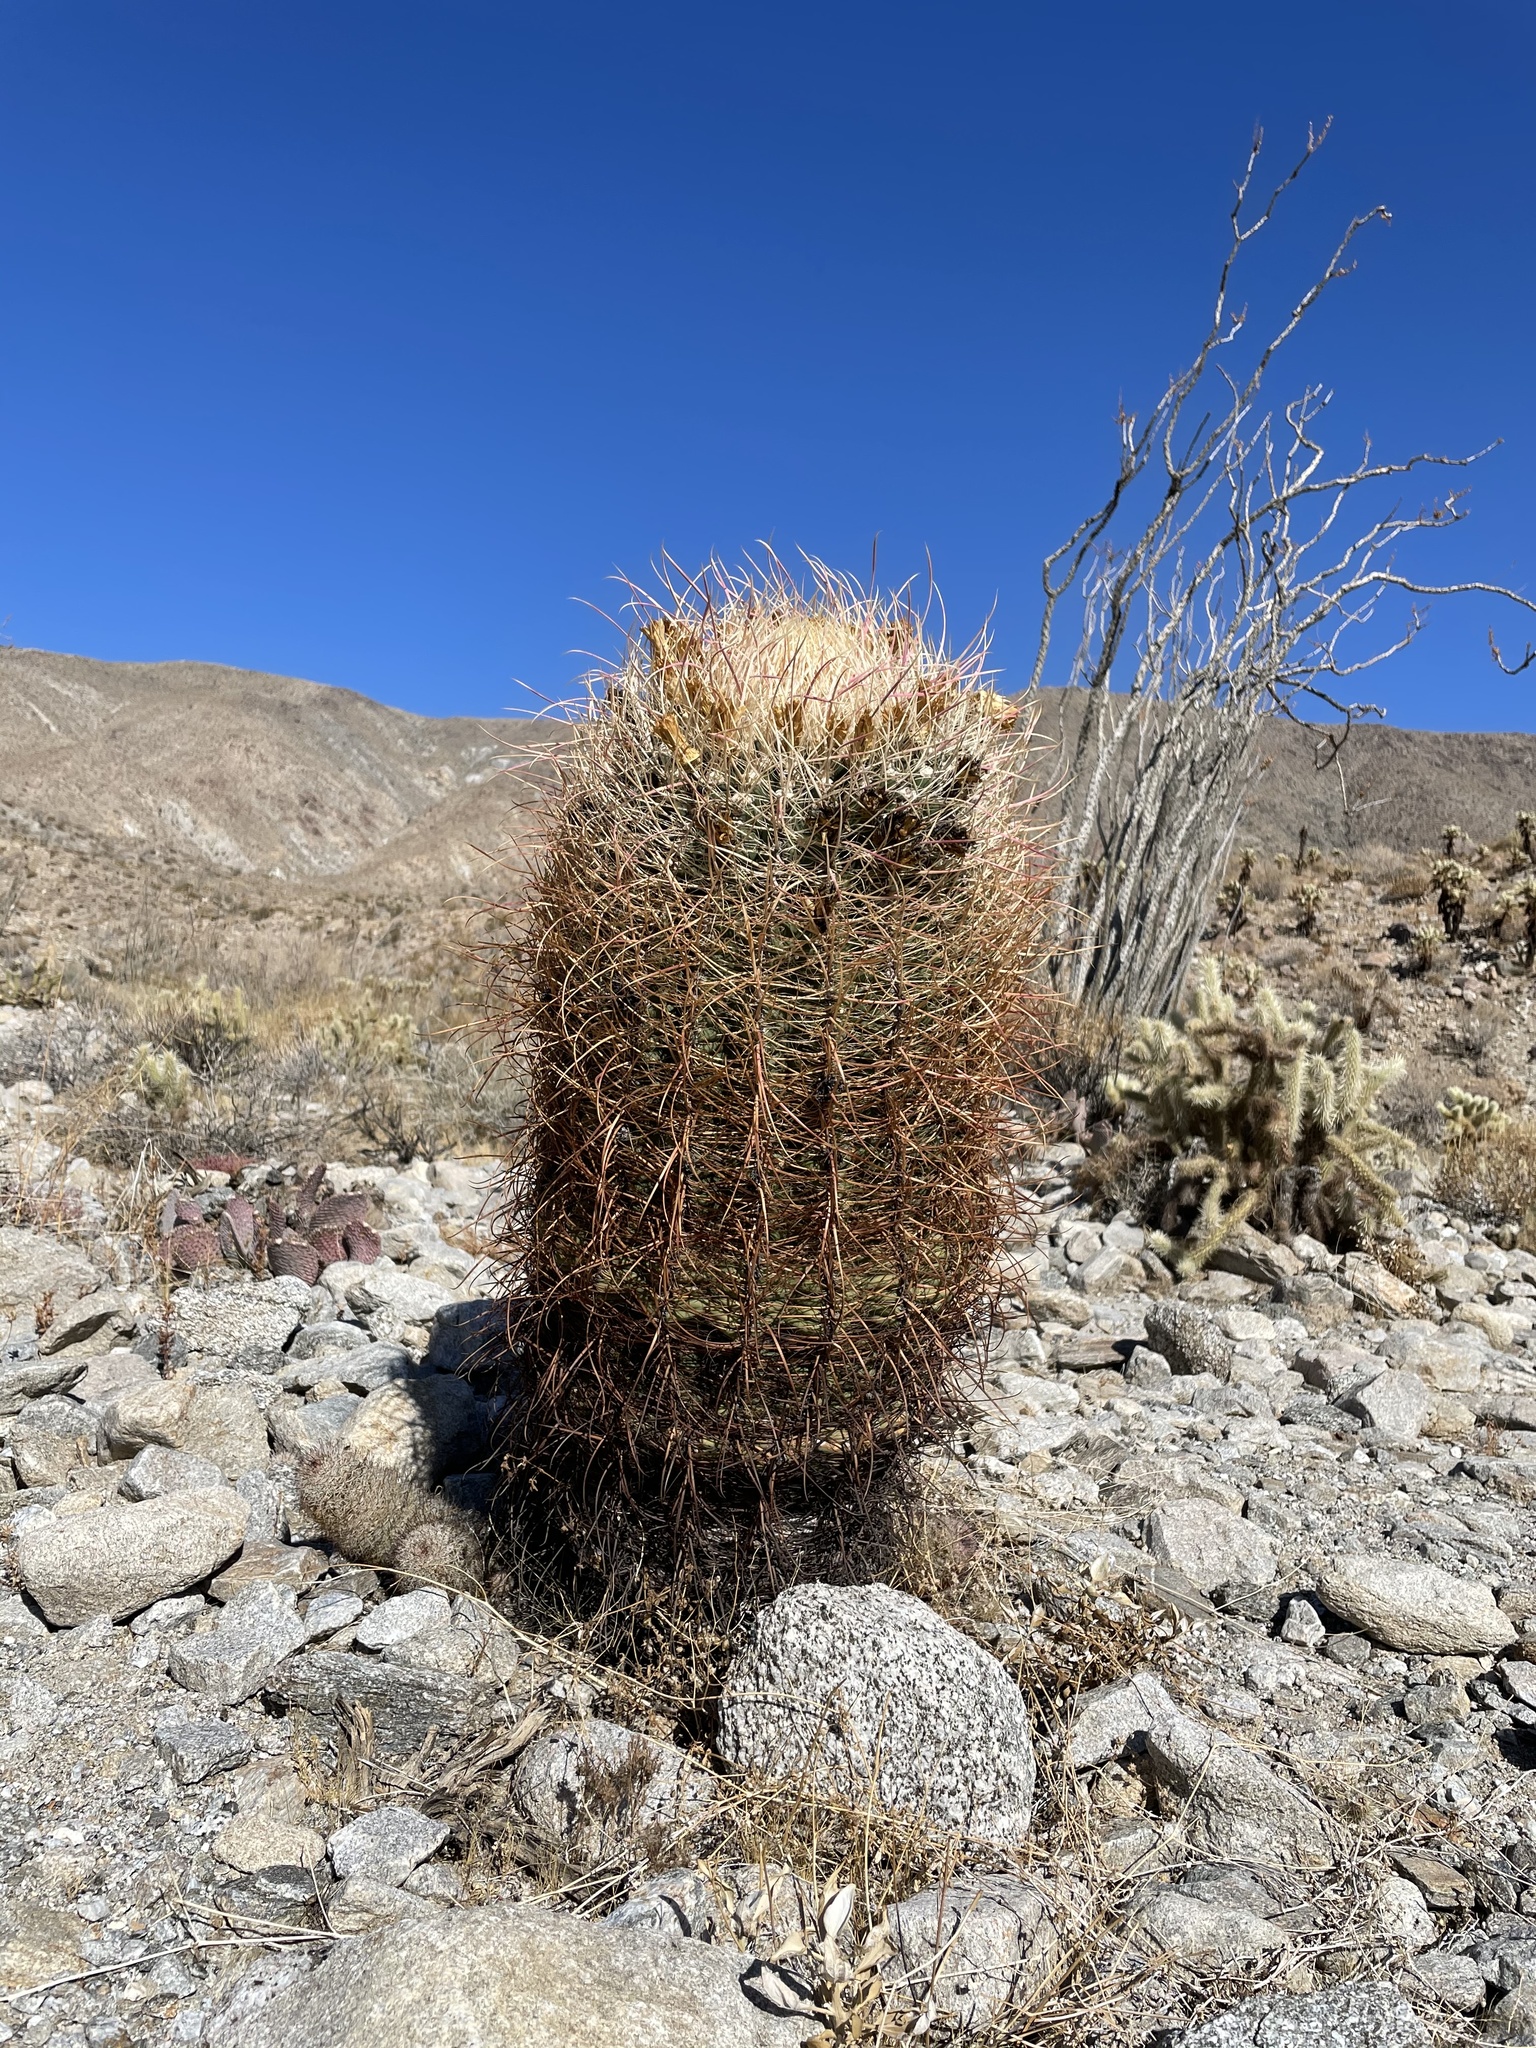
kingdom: Plantae
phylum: Tracheophyta
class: Magnoliopsida
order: Caryophyllales
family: Cactaceae
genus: Ferocactus
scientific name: Ferocactus cylindraceus
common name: California barrel cactus
